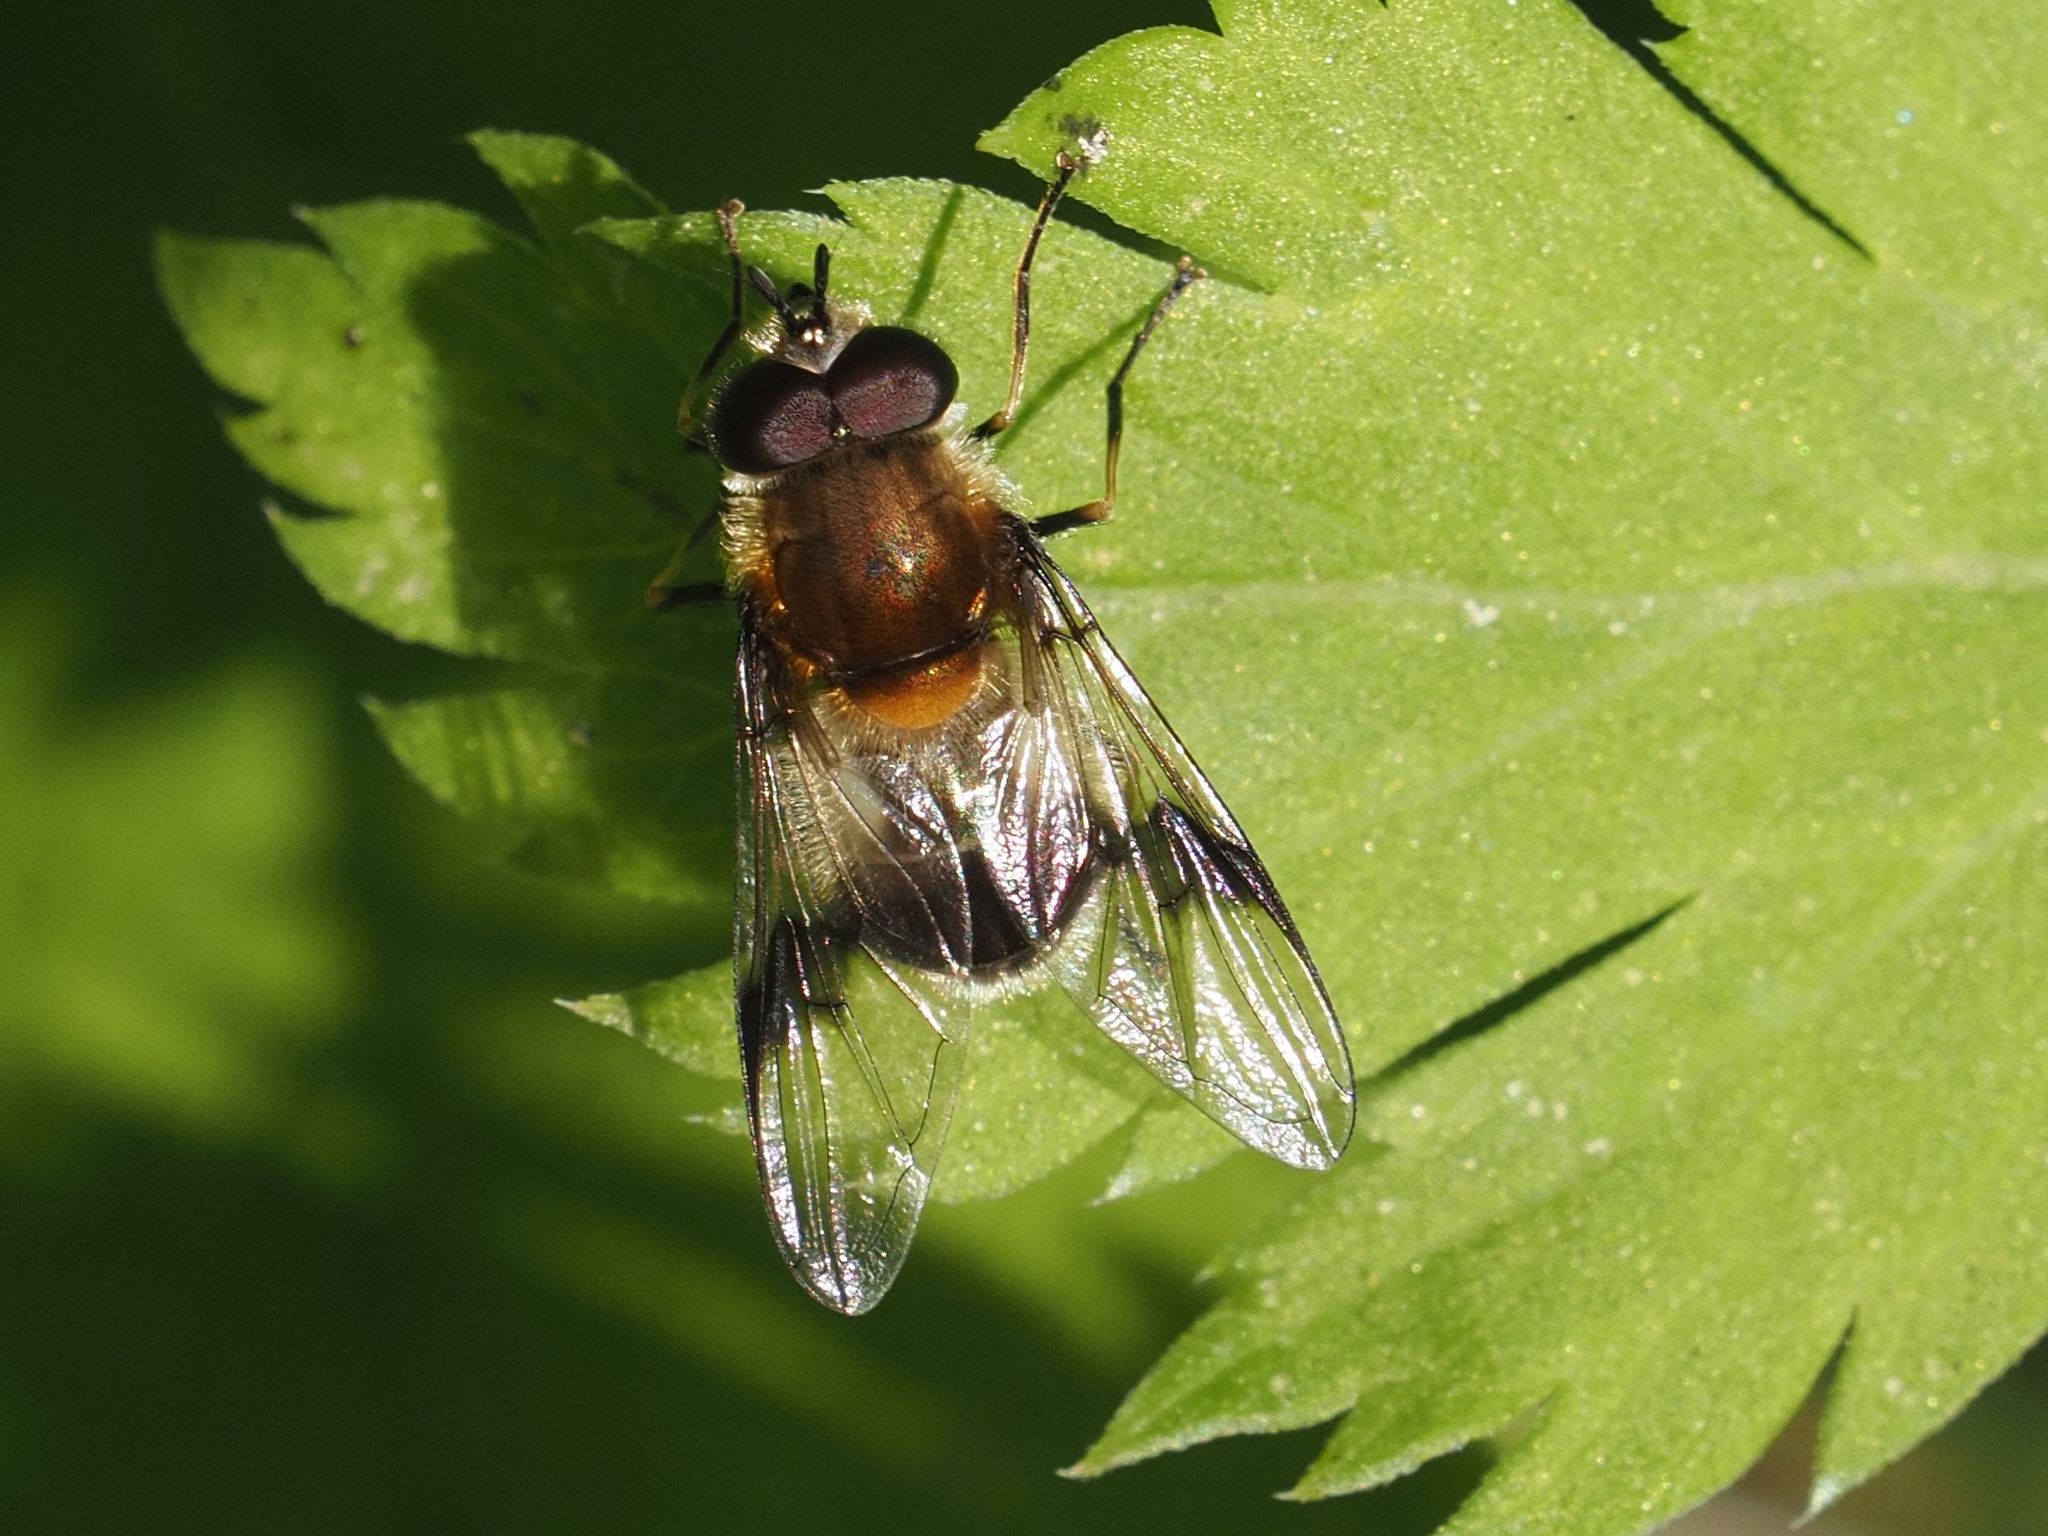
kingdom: Animalia
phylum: Arthropoda
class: Insecta
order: Diptera
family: Syrphidae
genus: Leucozona
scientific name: Leucozona lucorum
